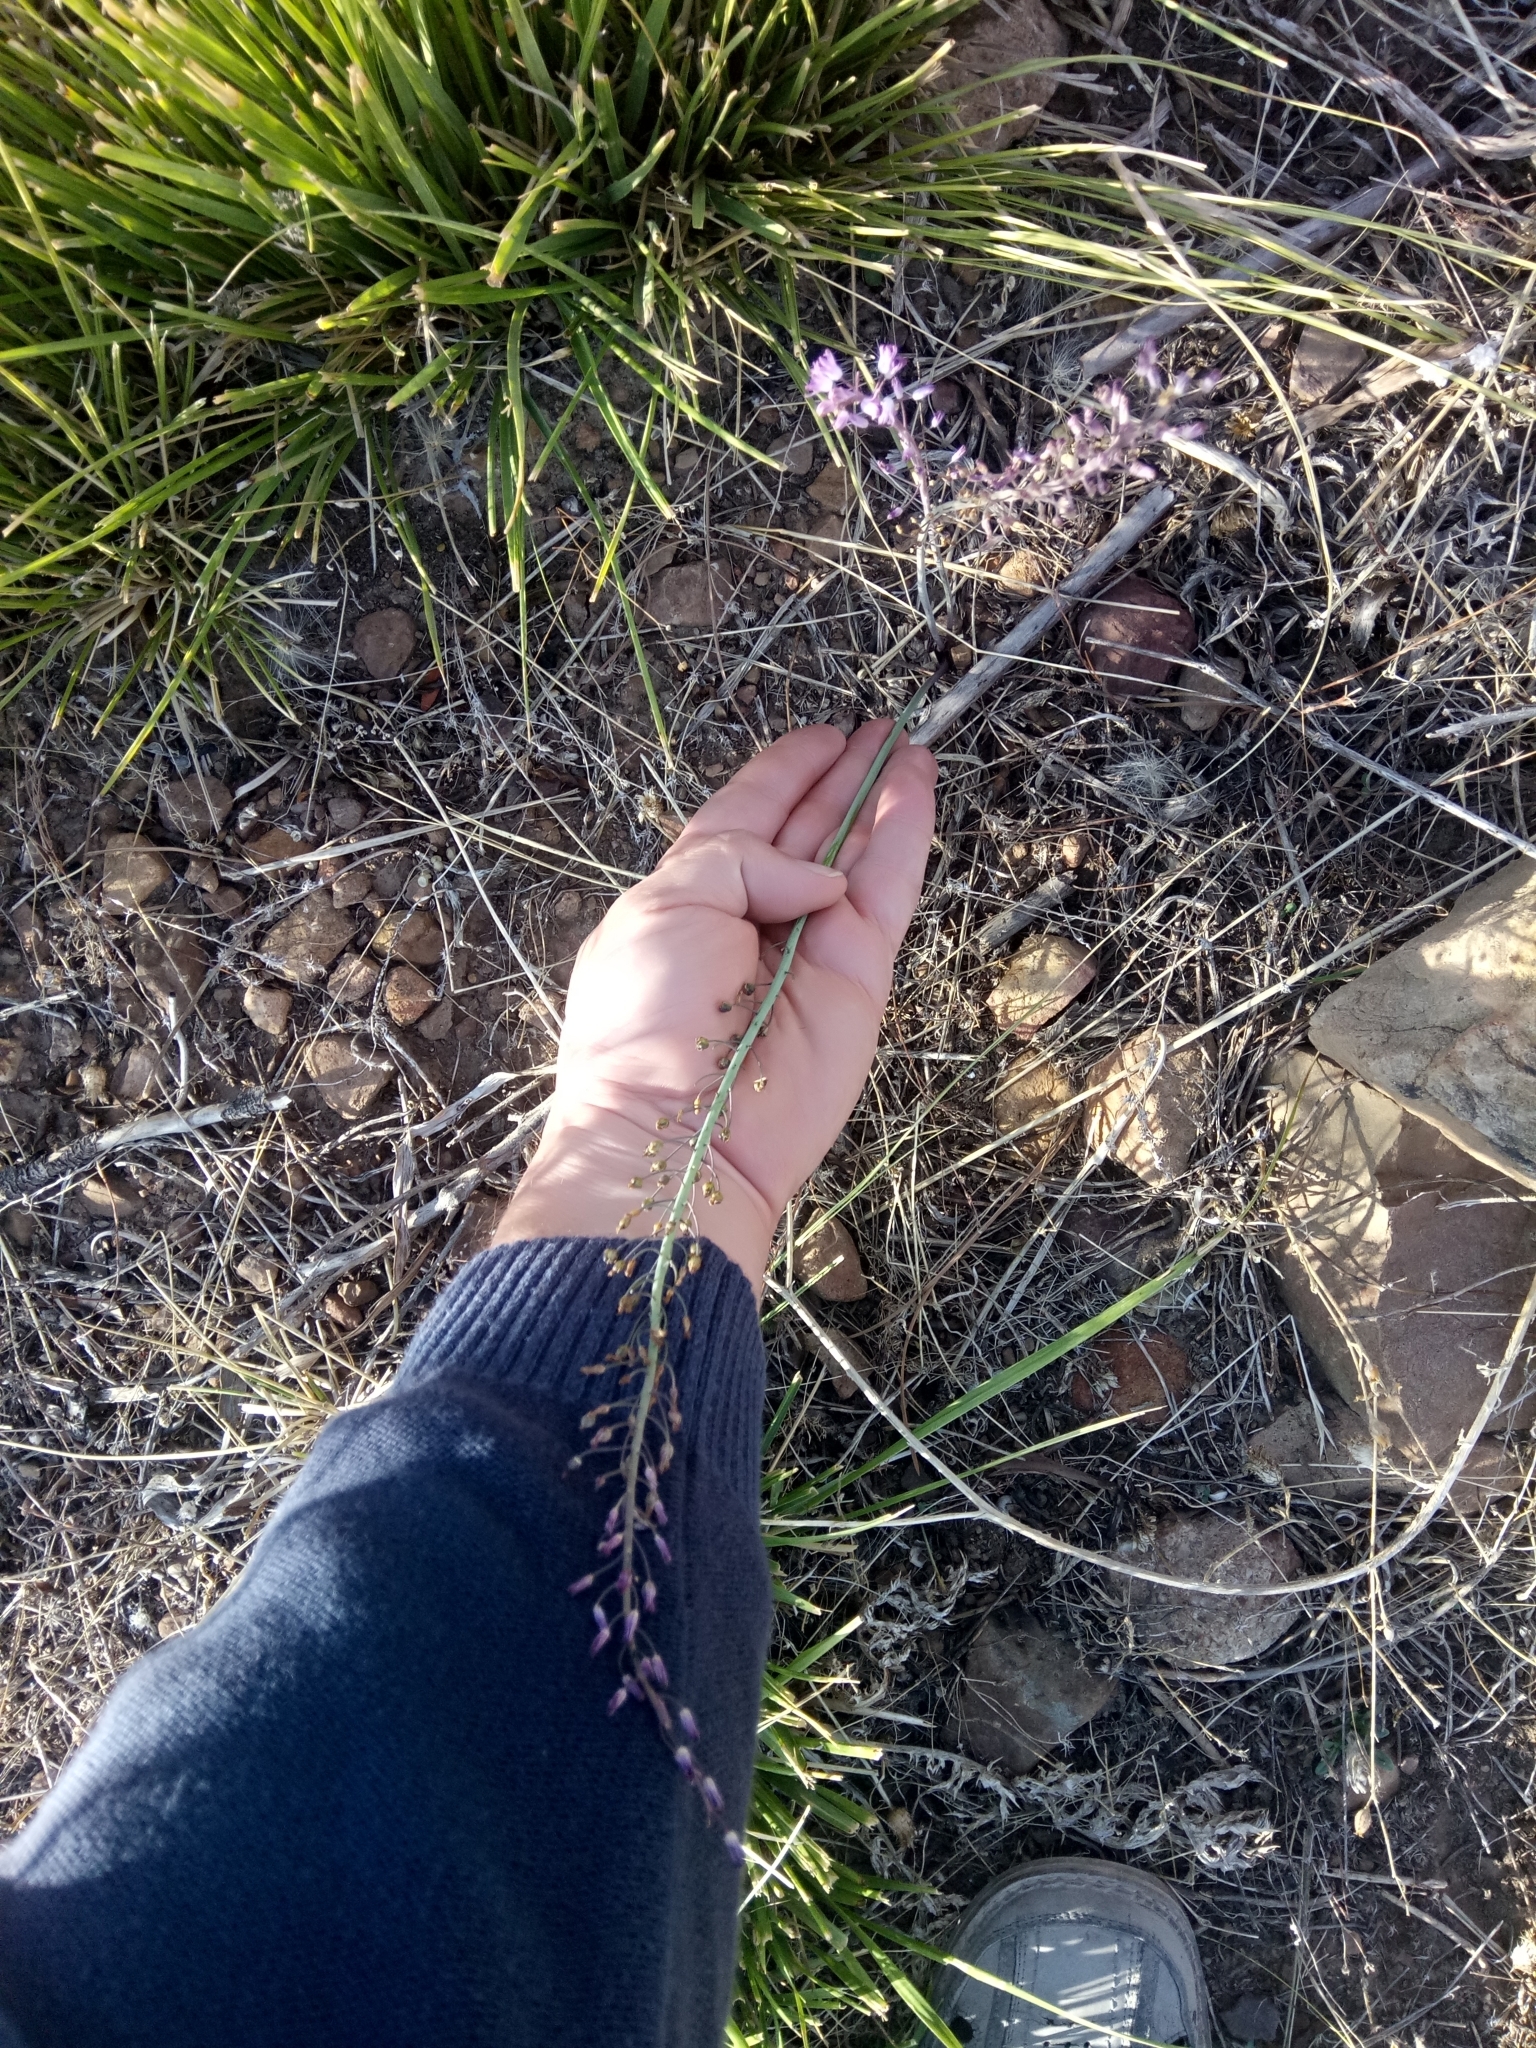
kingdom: Plantae
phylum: Tracheophyta
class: Liliopsida
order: Asparagales
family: Asparagaceae
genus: Prospero
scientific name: Prospero obtusifolium
